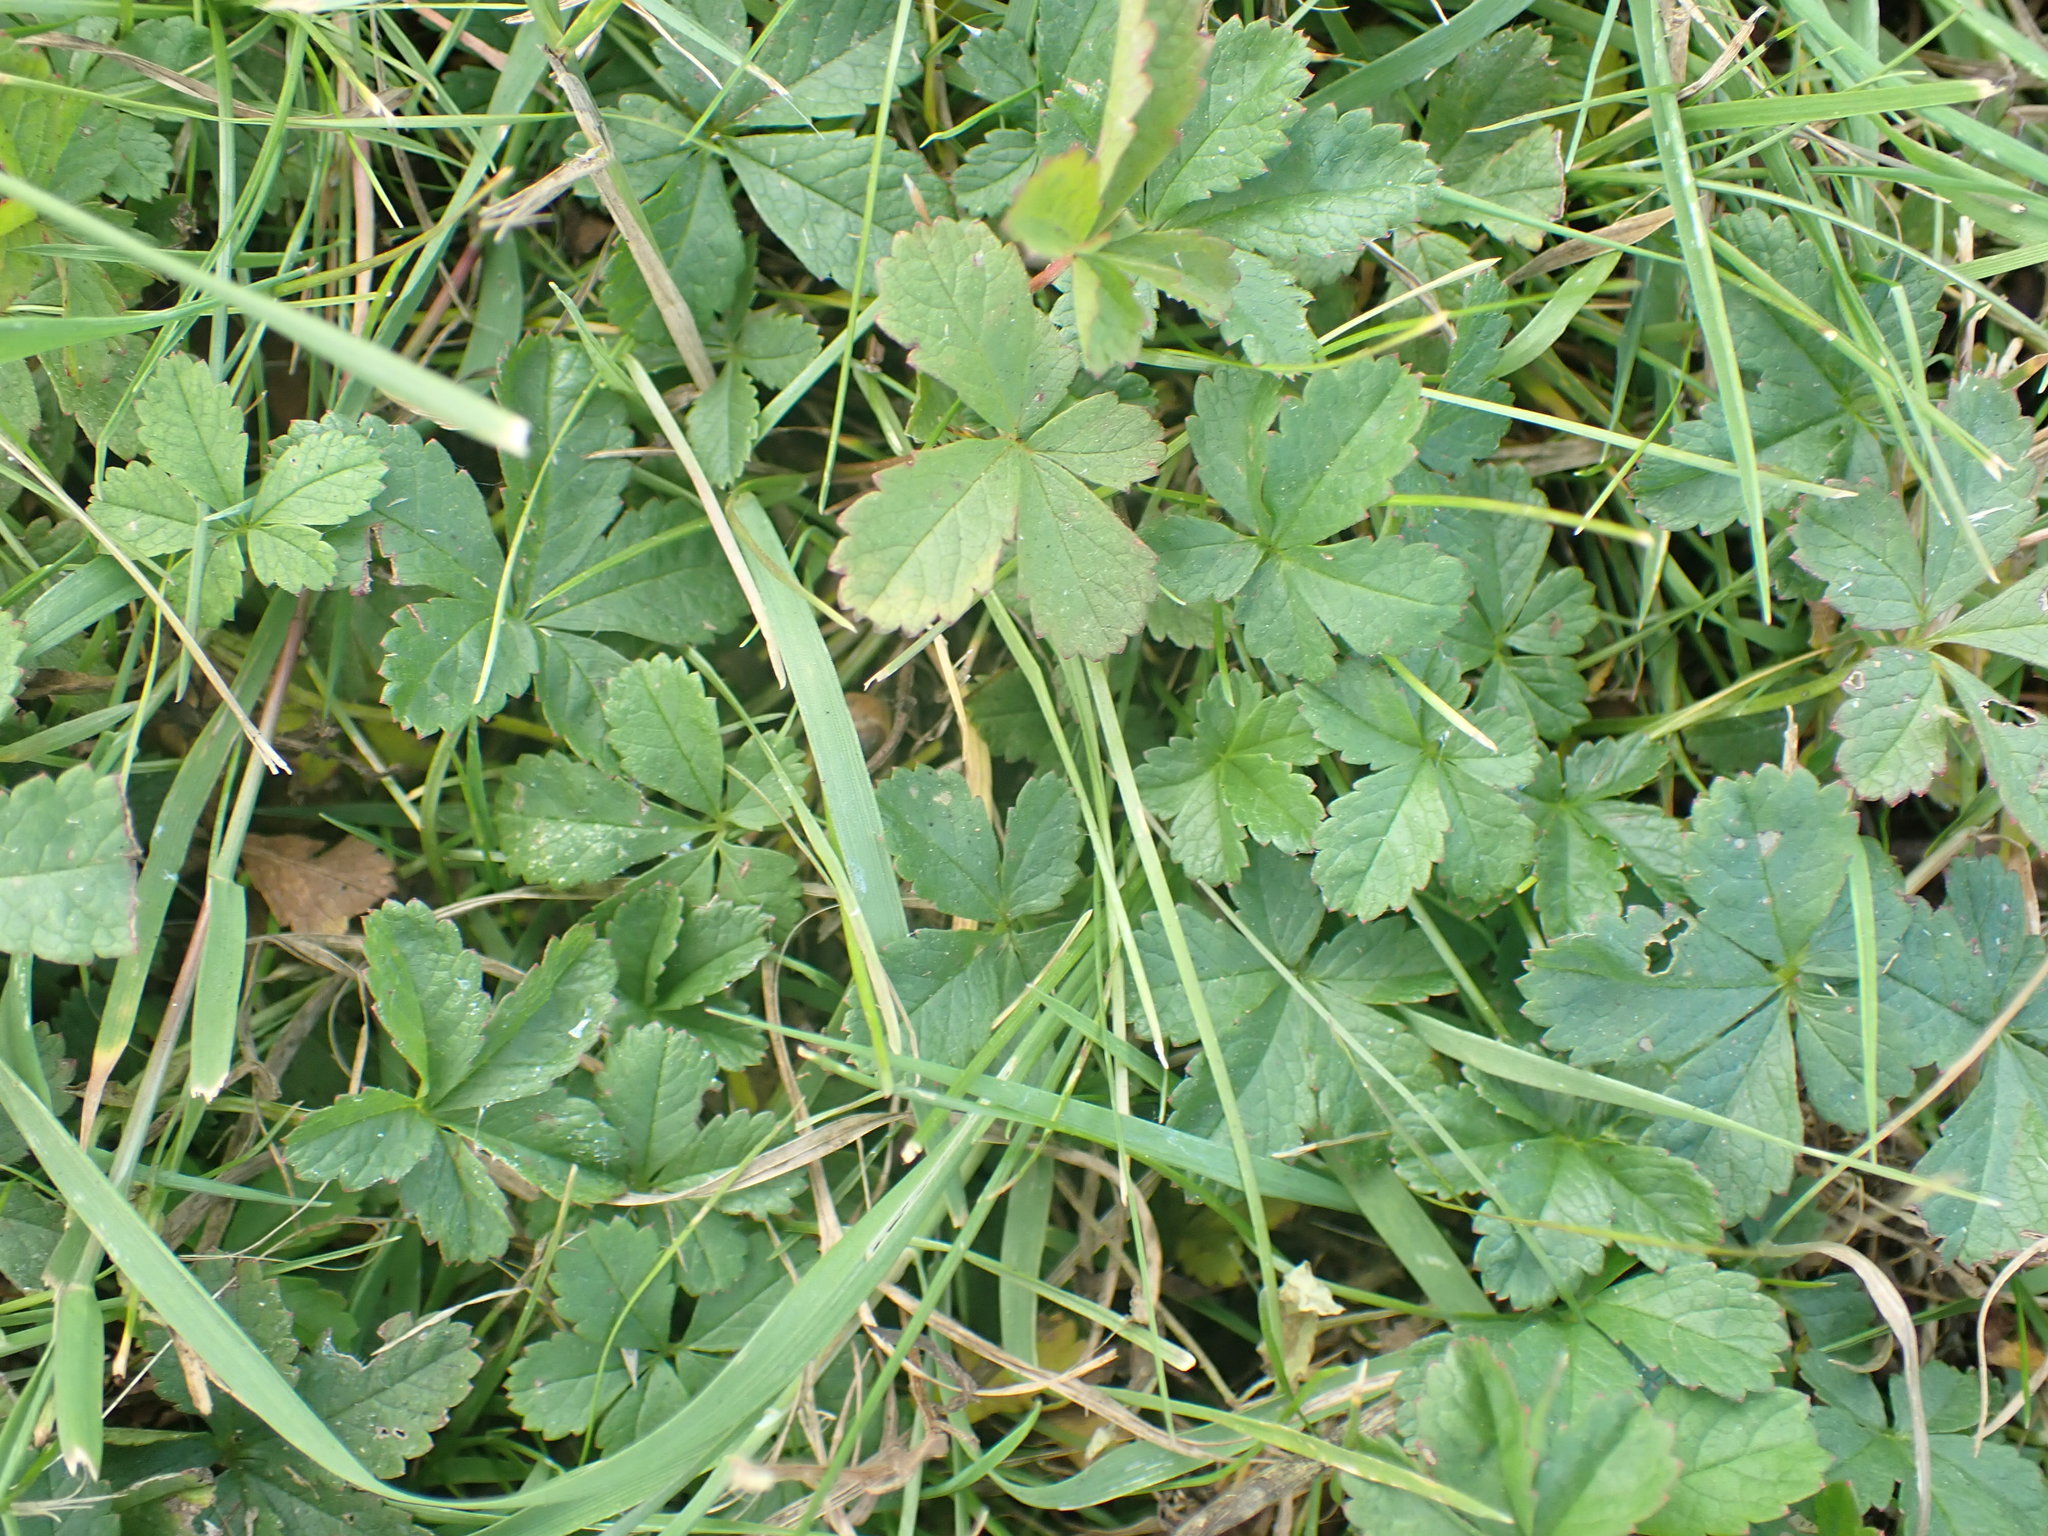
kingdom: Plantae
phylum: Tracheophyta
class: Magnoliopsida
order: Rosales
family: Rosaceae
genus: Potentilla
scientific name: Potentilla reptans
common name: Creeping cinquefoil
